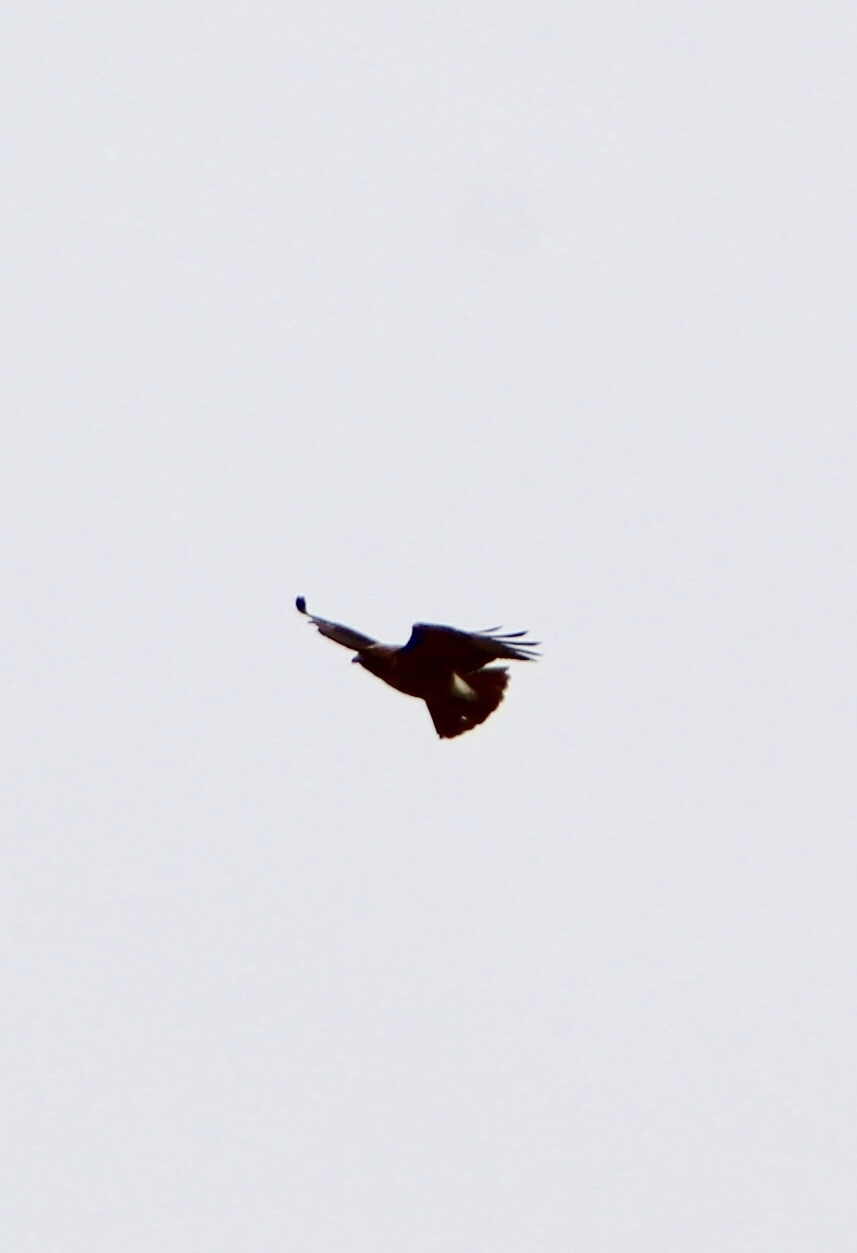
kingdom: Animalia
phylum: Chordata
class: Aves
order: Accipitriformes
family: Accipitridae
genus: Buteo
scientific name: Buteo jamaicensis
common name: Red-tailed hawk
